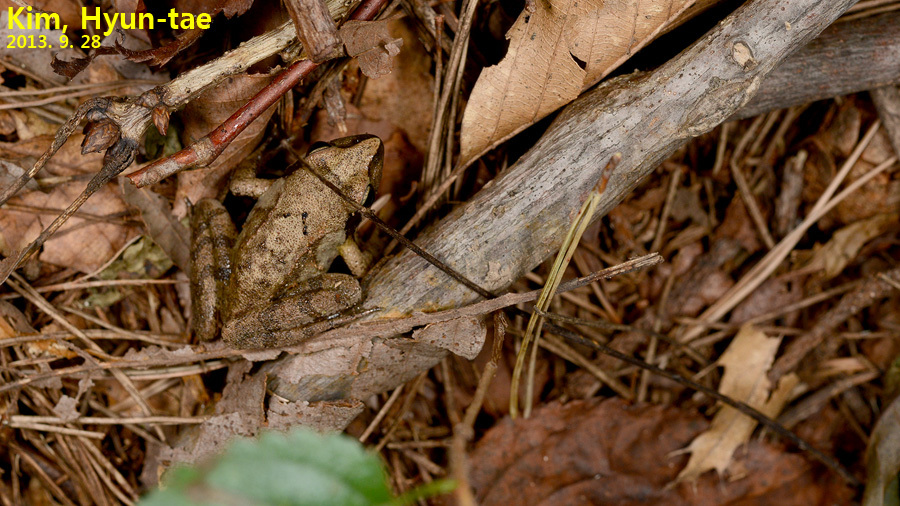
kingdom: Animalia
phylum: Chordata
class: Amphibia
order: Anura
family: Ranidae
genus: Rana
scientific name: Rana uenoi
